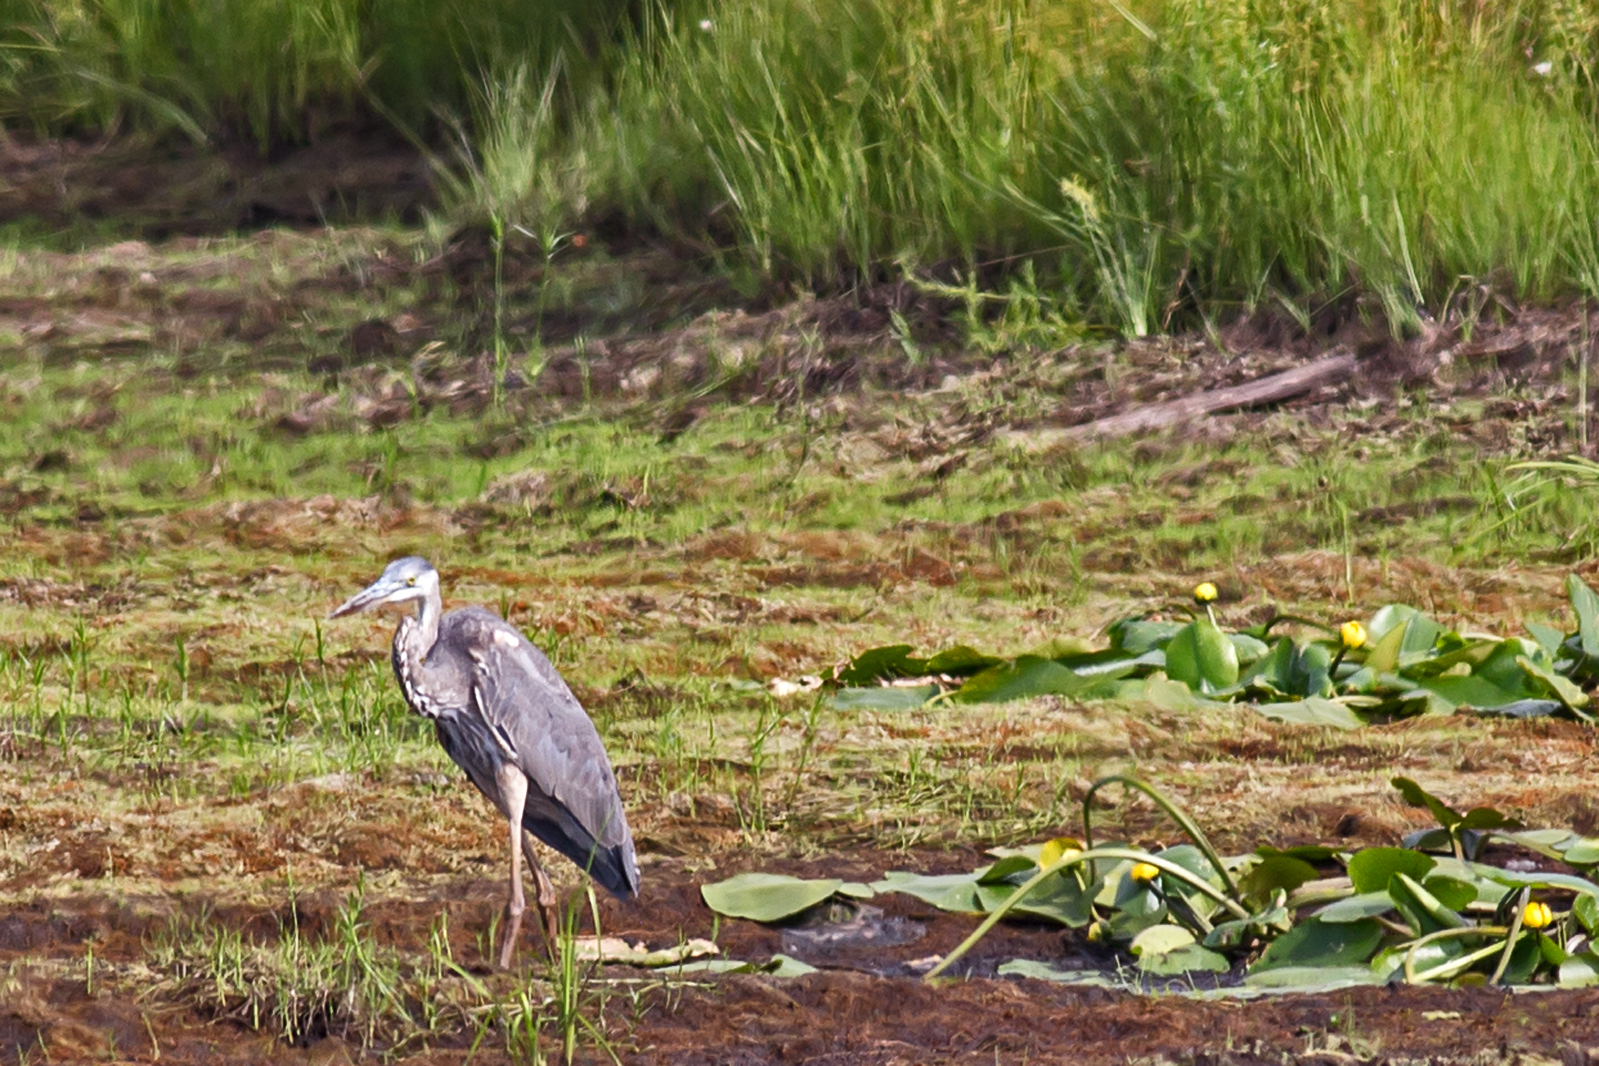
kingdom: Animalia
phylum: Chordata
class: Aves
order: Pelecaniformes
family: Ardeidae
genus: Ardea
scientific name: Ardea herodias
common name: Great blue heron
